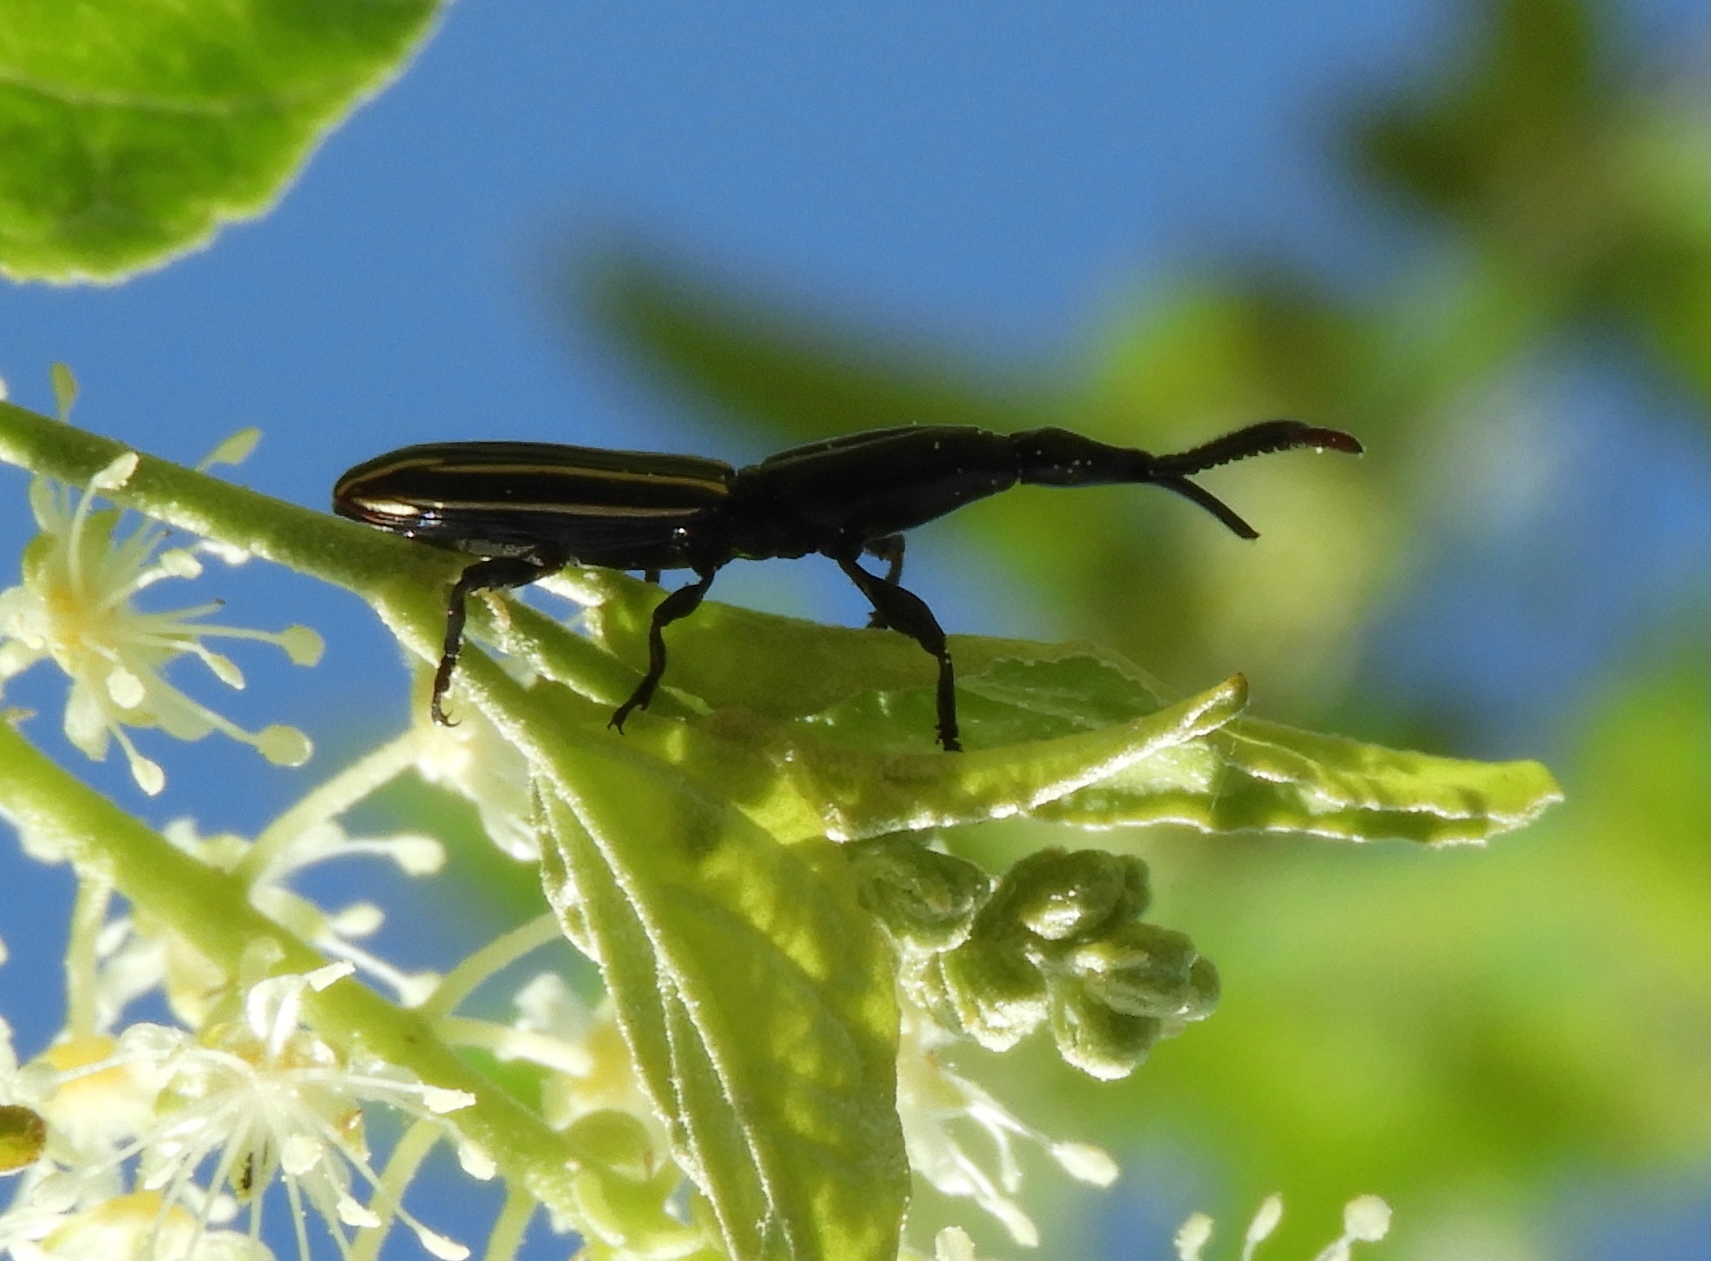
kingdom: Animalia
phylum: Arthropoda
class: Insecta
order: Coleoptera
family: Brentidae
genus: Brentus
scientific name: Brentus
